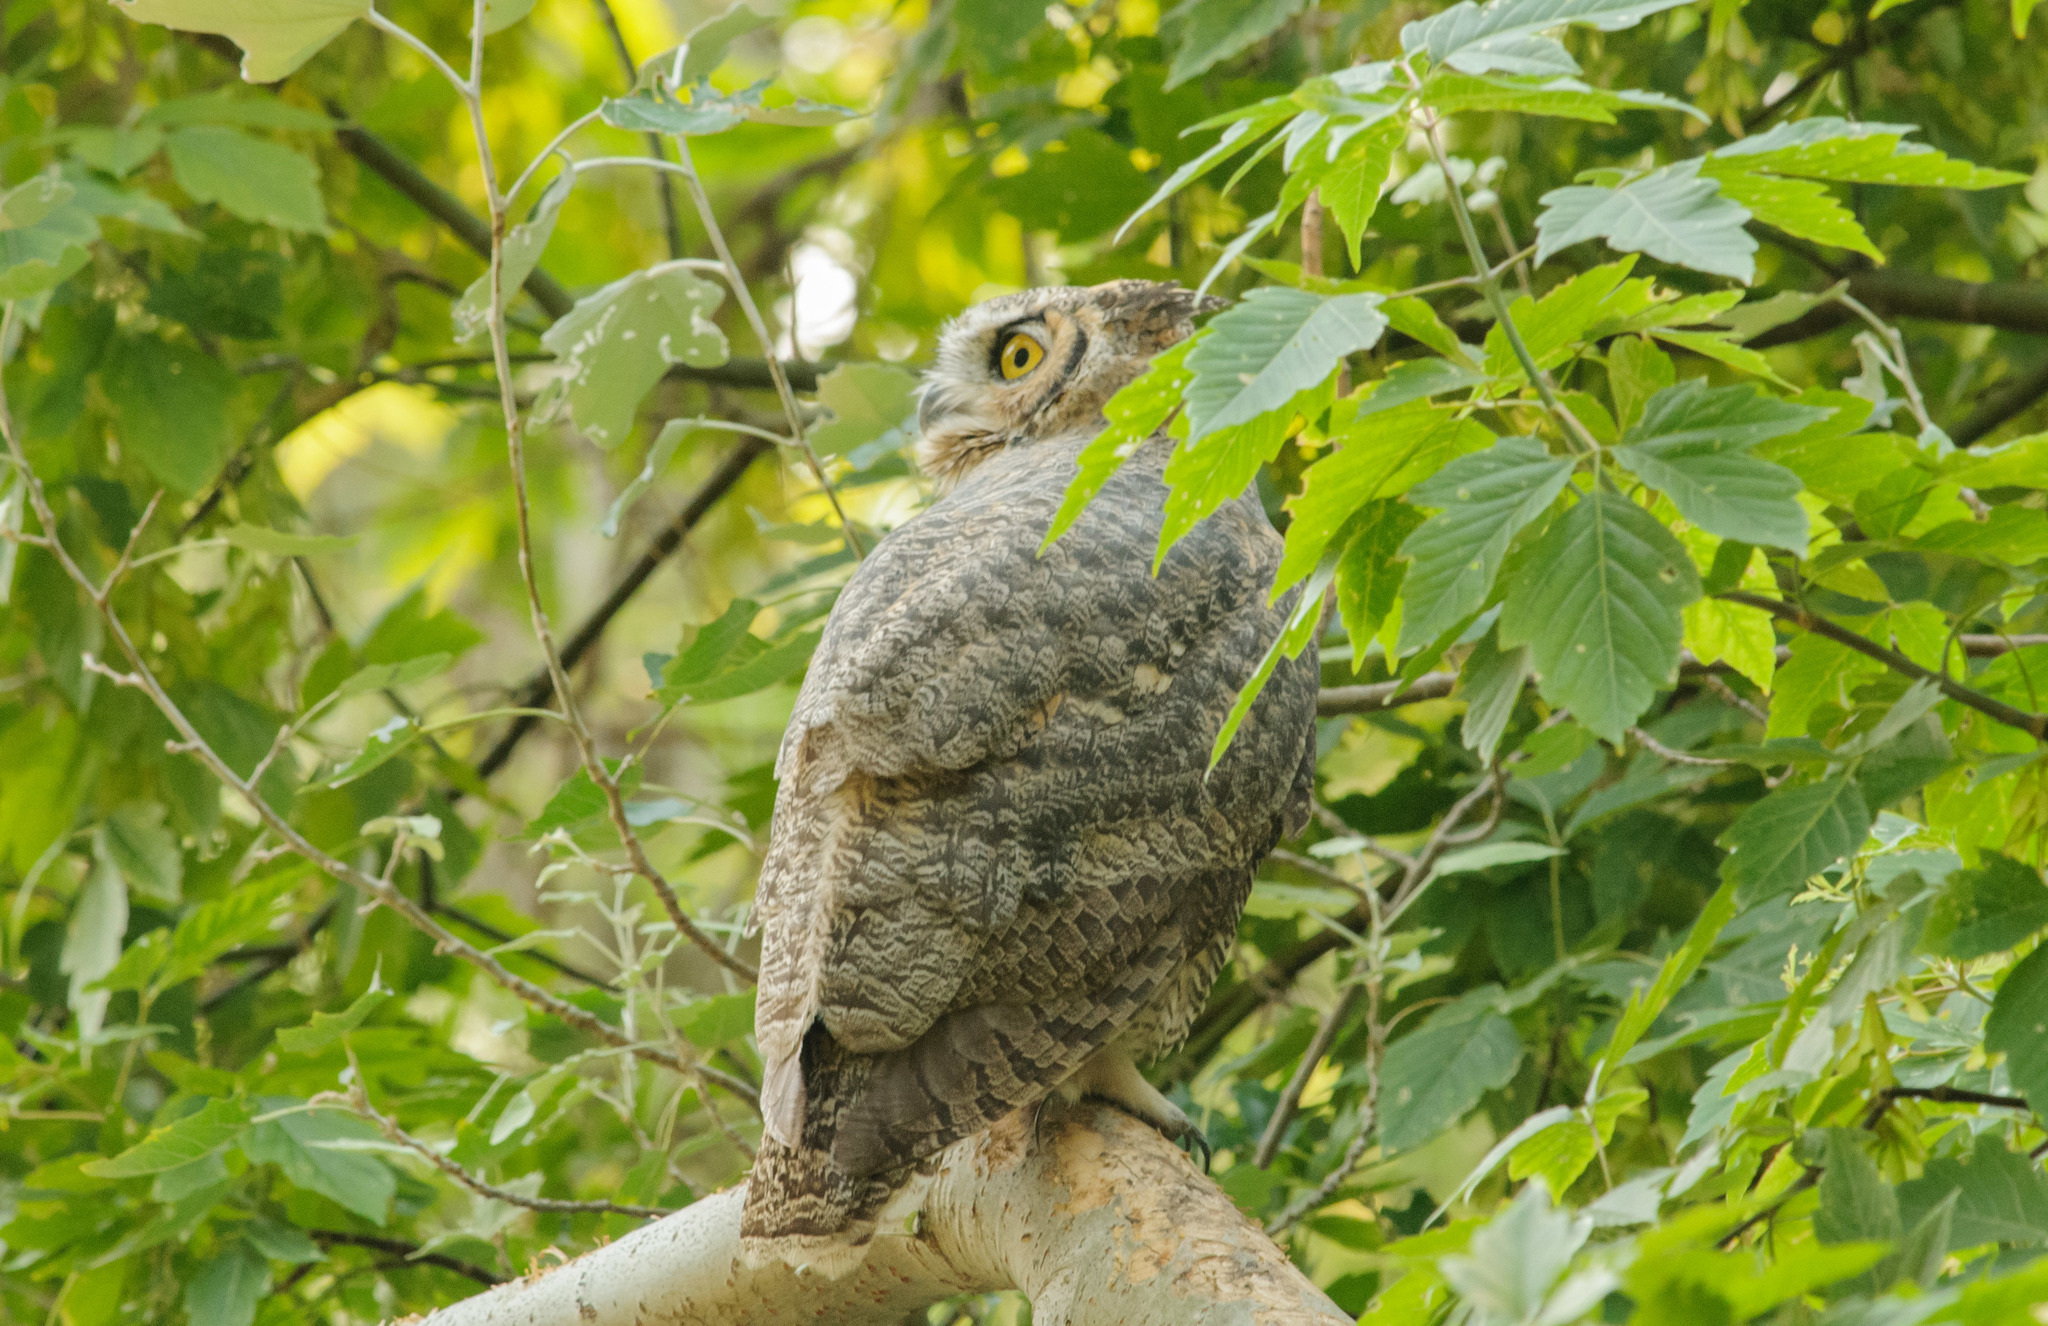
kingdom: Animalia
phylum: Chordata
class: Aves
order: Strigiformes
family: Strigidae
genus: Bubo
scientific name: Bubo virginianus
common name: Great horned owl
